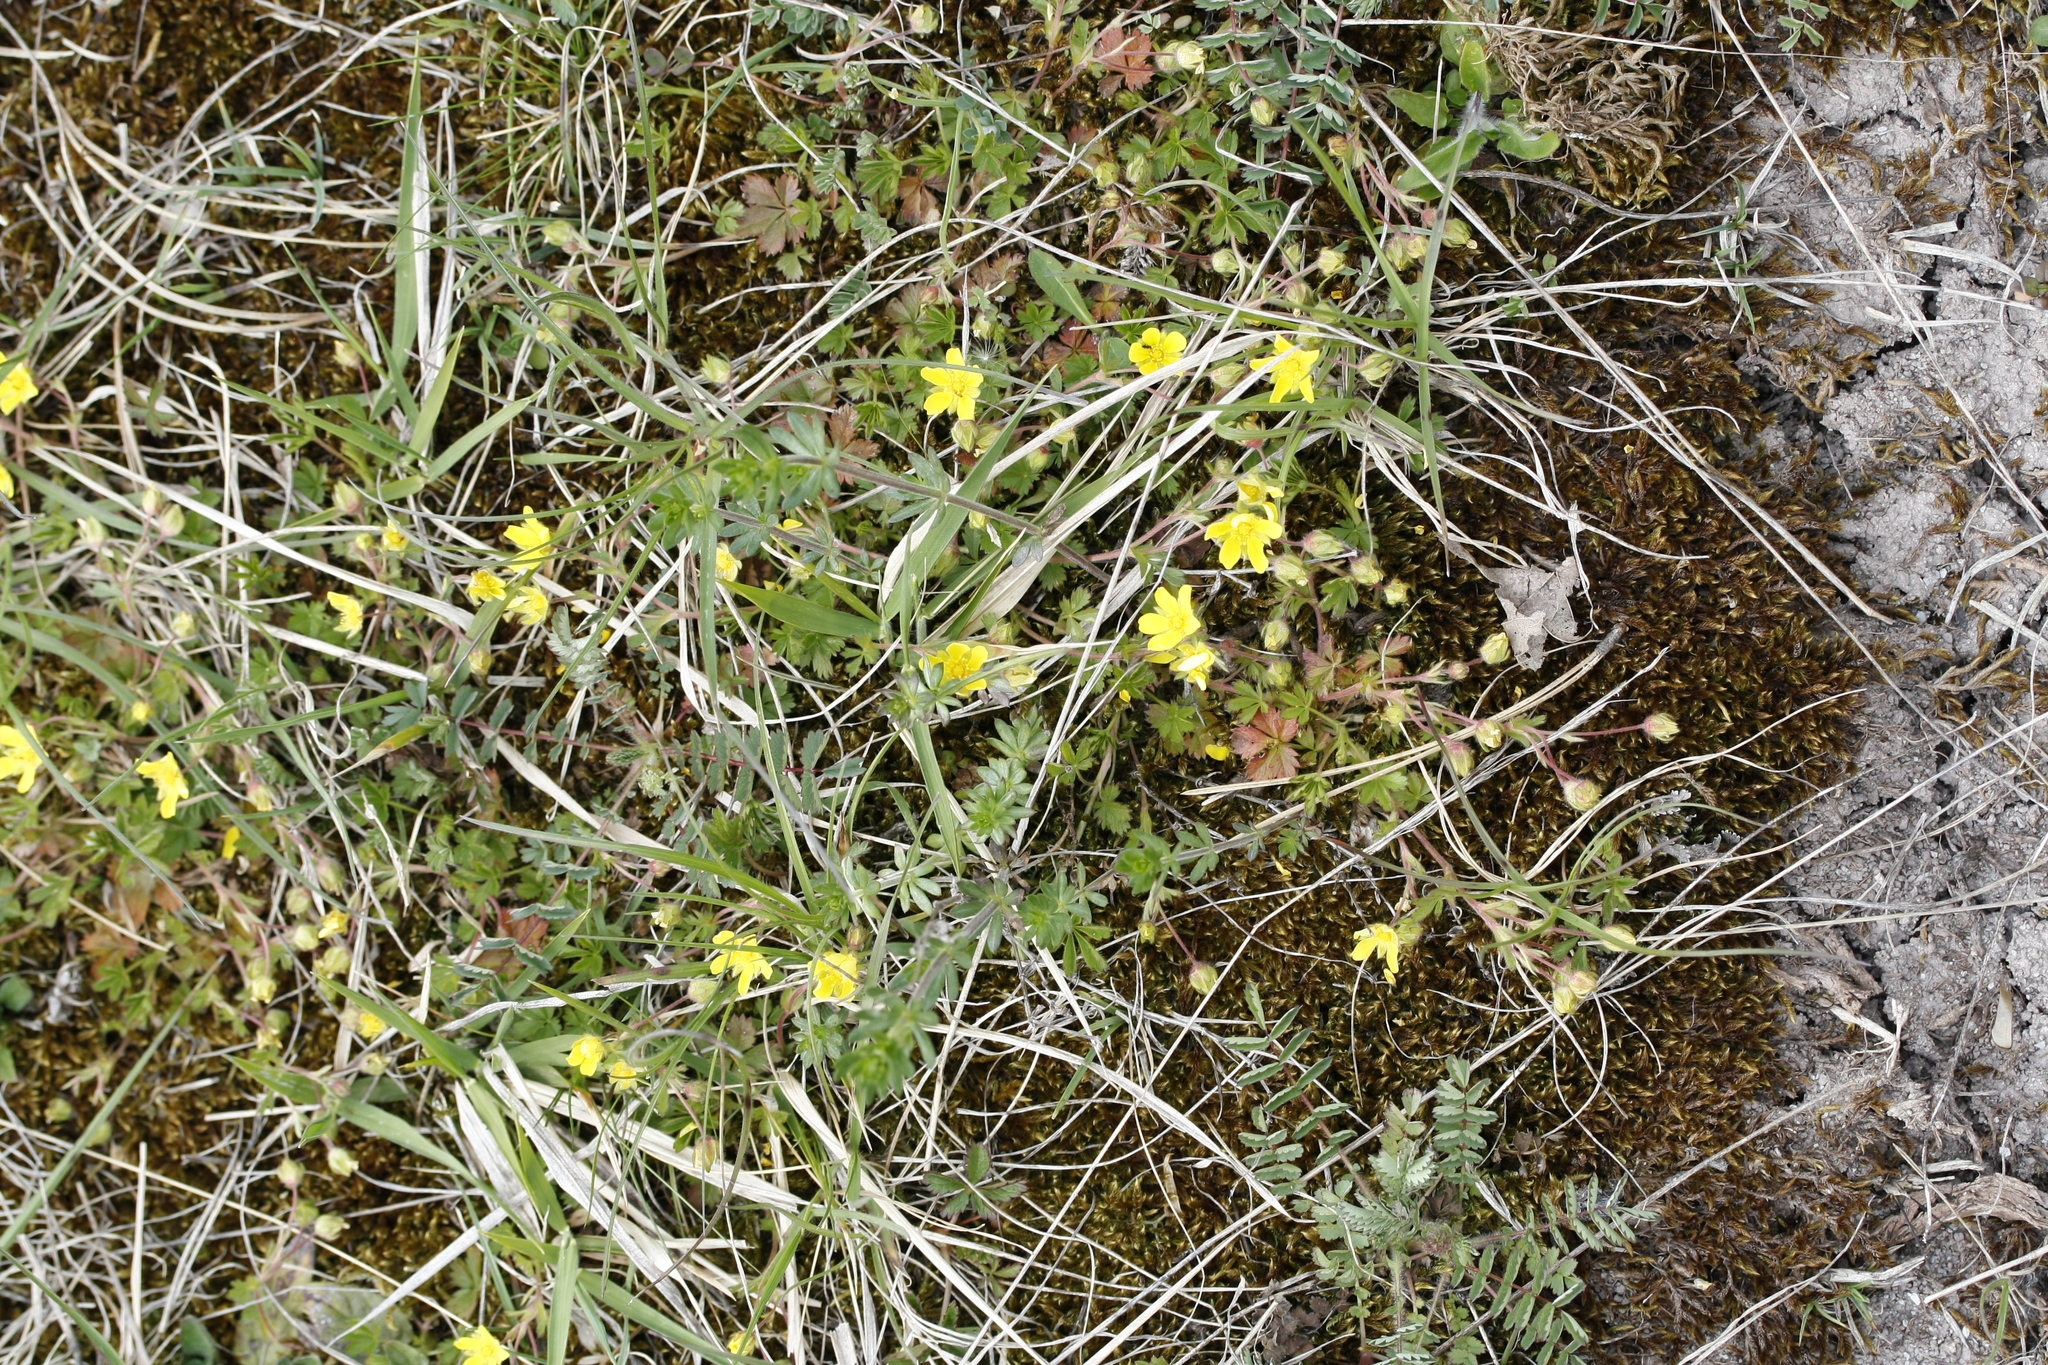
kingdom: Plantae
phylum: Tracheophyta
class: Magnoliopsida
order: Rosales
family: Rosaceae
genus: Potentilla
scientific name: Potentilla verna
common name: Spring cinquefoil
